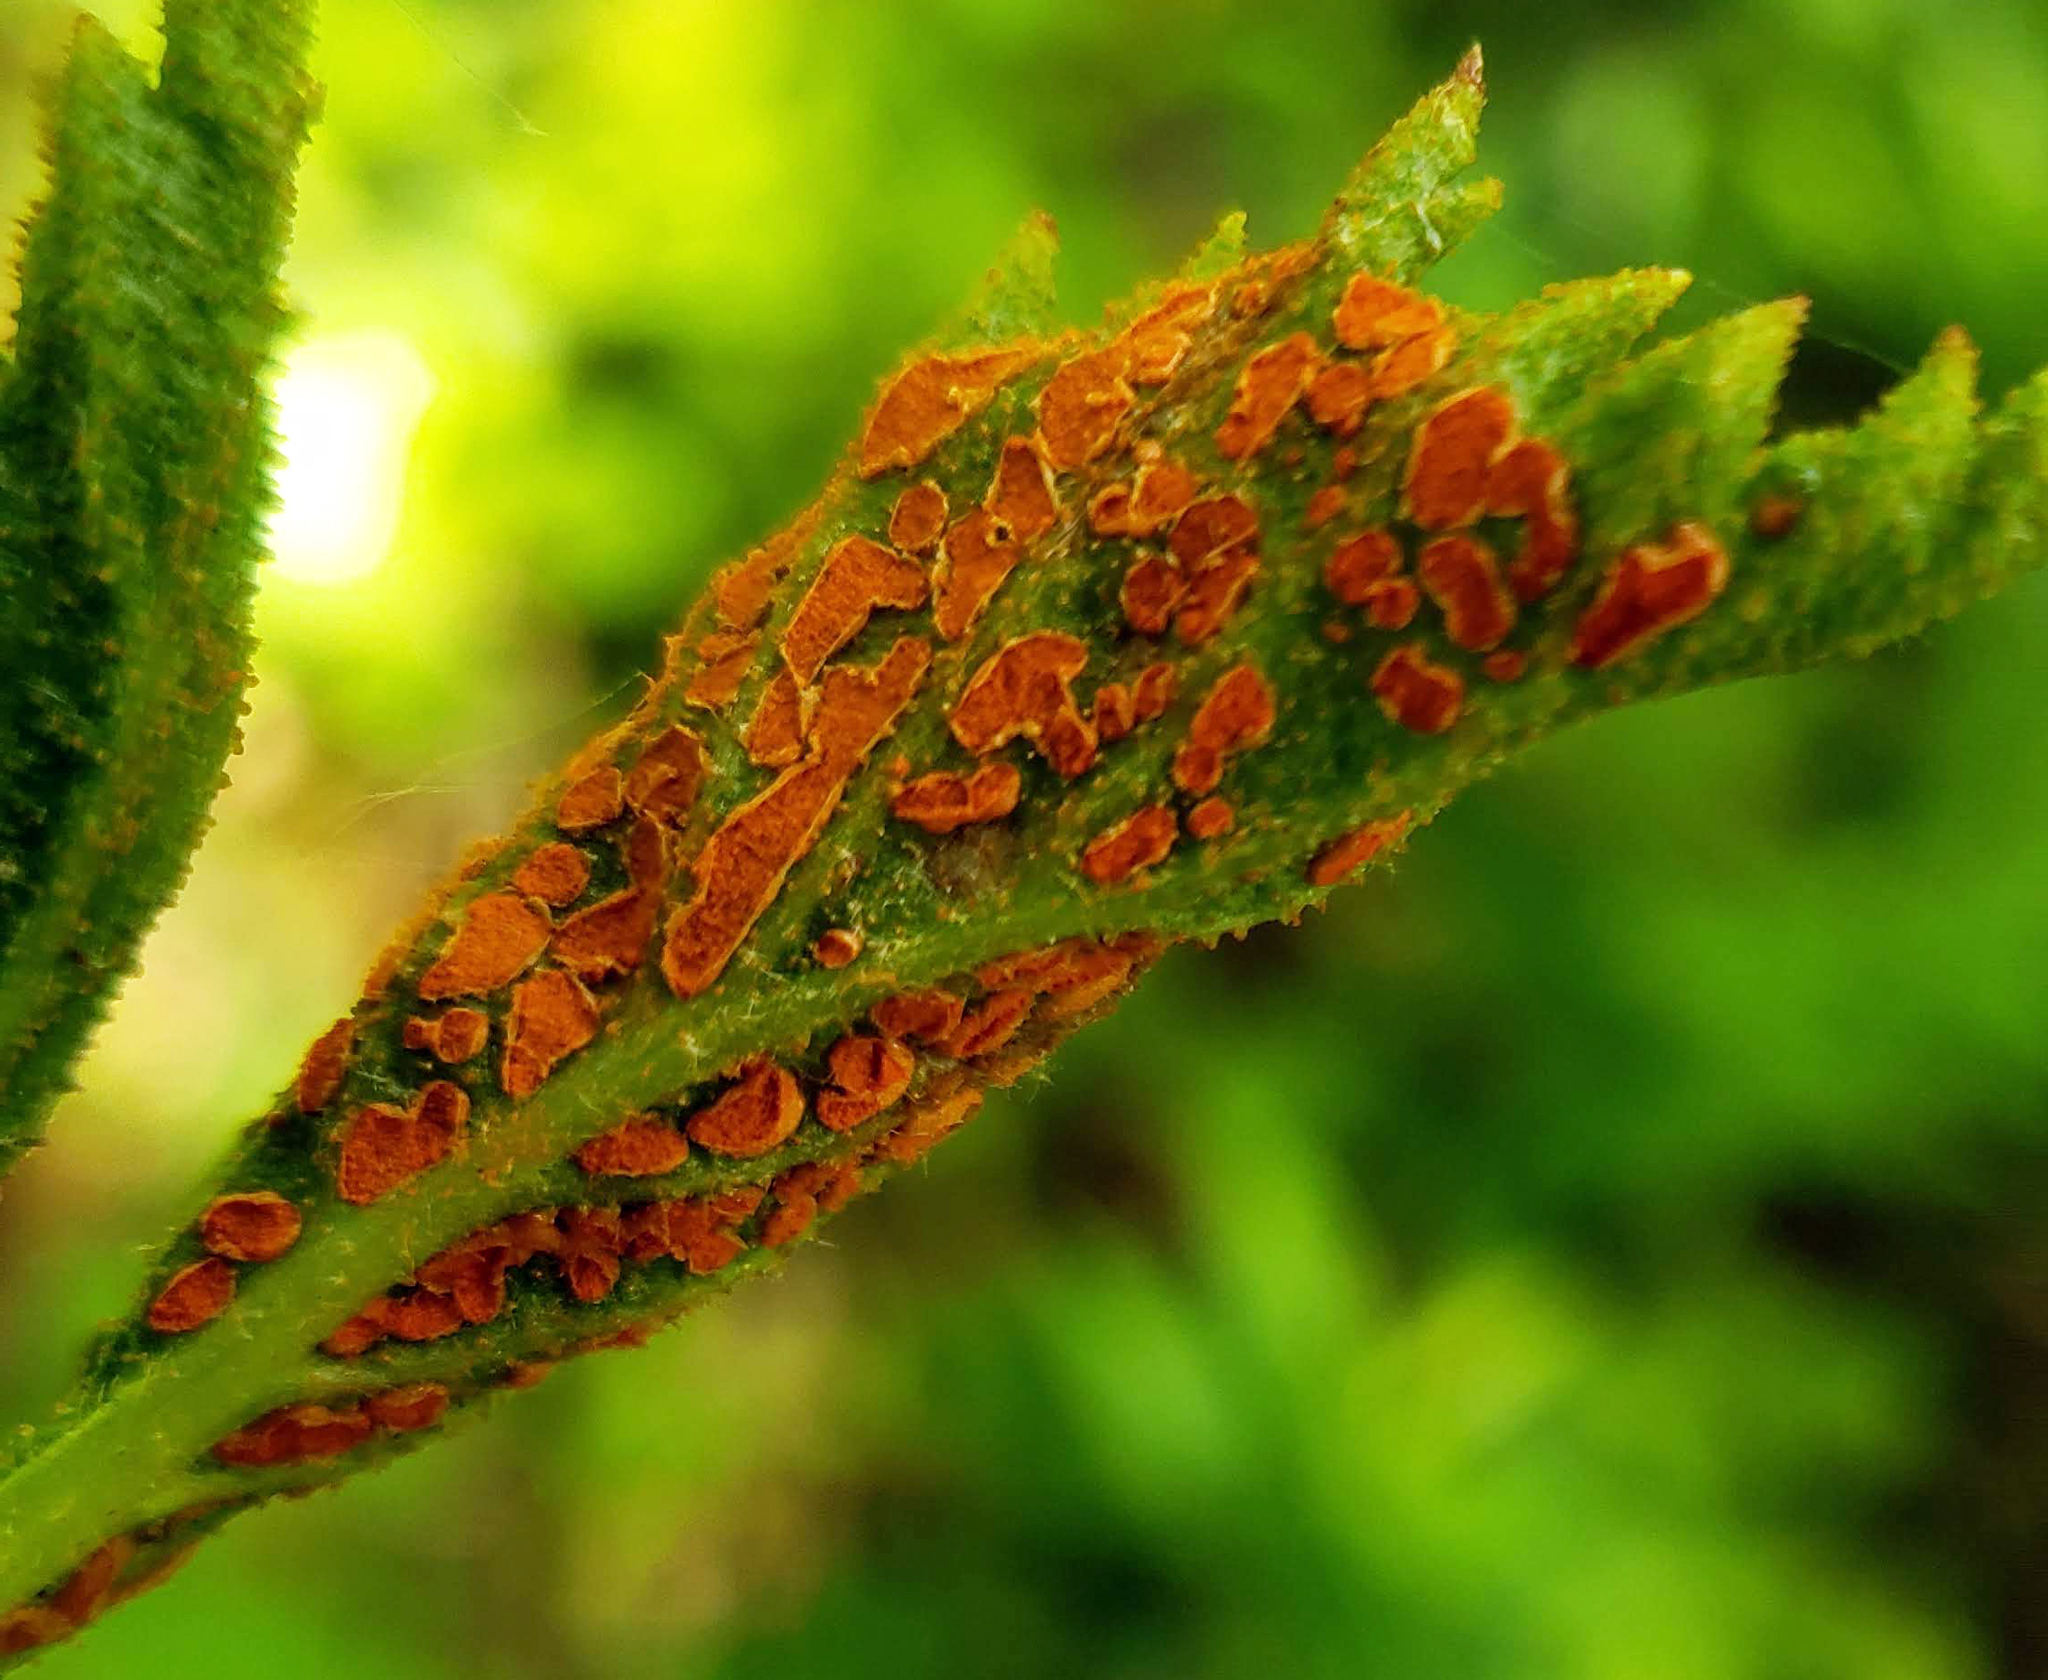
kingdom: Fungi
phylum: Basidiomycota
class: Pucciniomycetes
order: Pucciniales
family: Phragmidiaceae
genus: Arthuriomyces
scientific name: Arthuriomyces peckianus
